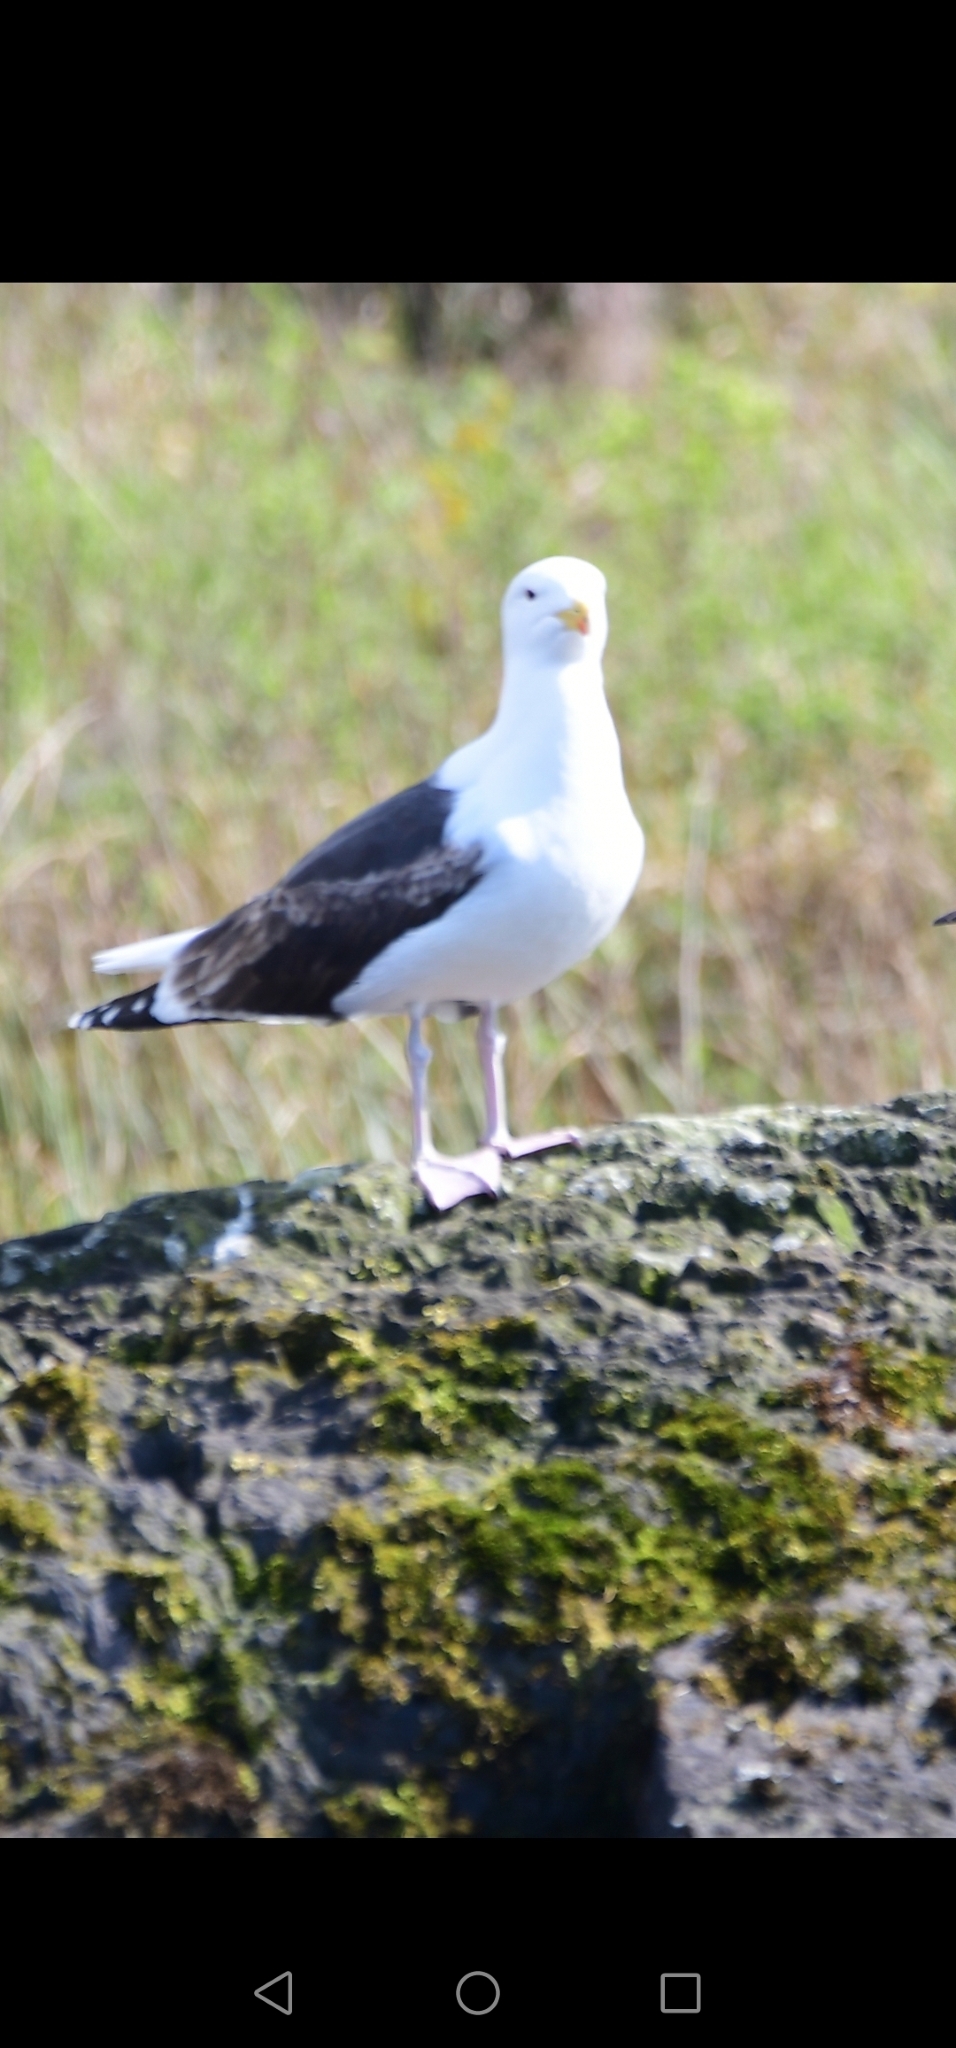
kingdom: Animalia
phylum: Chordata
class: Aves
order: Charadriiformes
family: Laridae
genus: Larus
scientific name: Larus marinus
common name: Great black-backed gull
